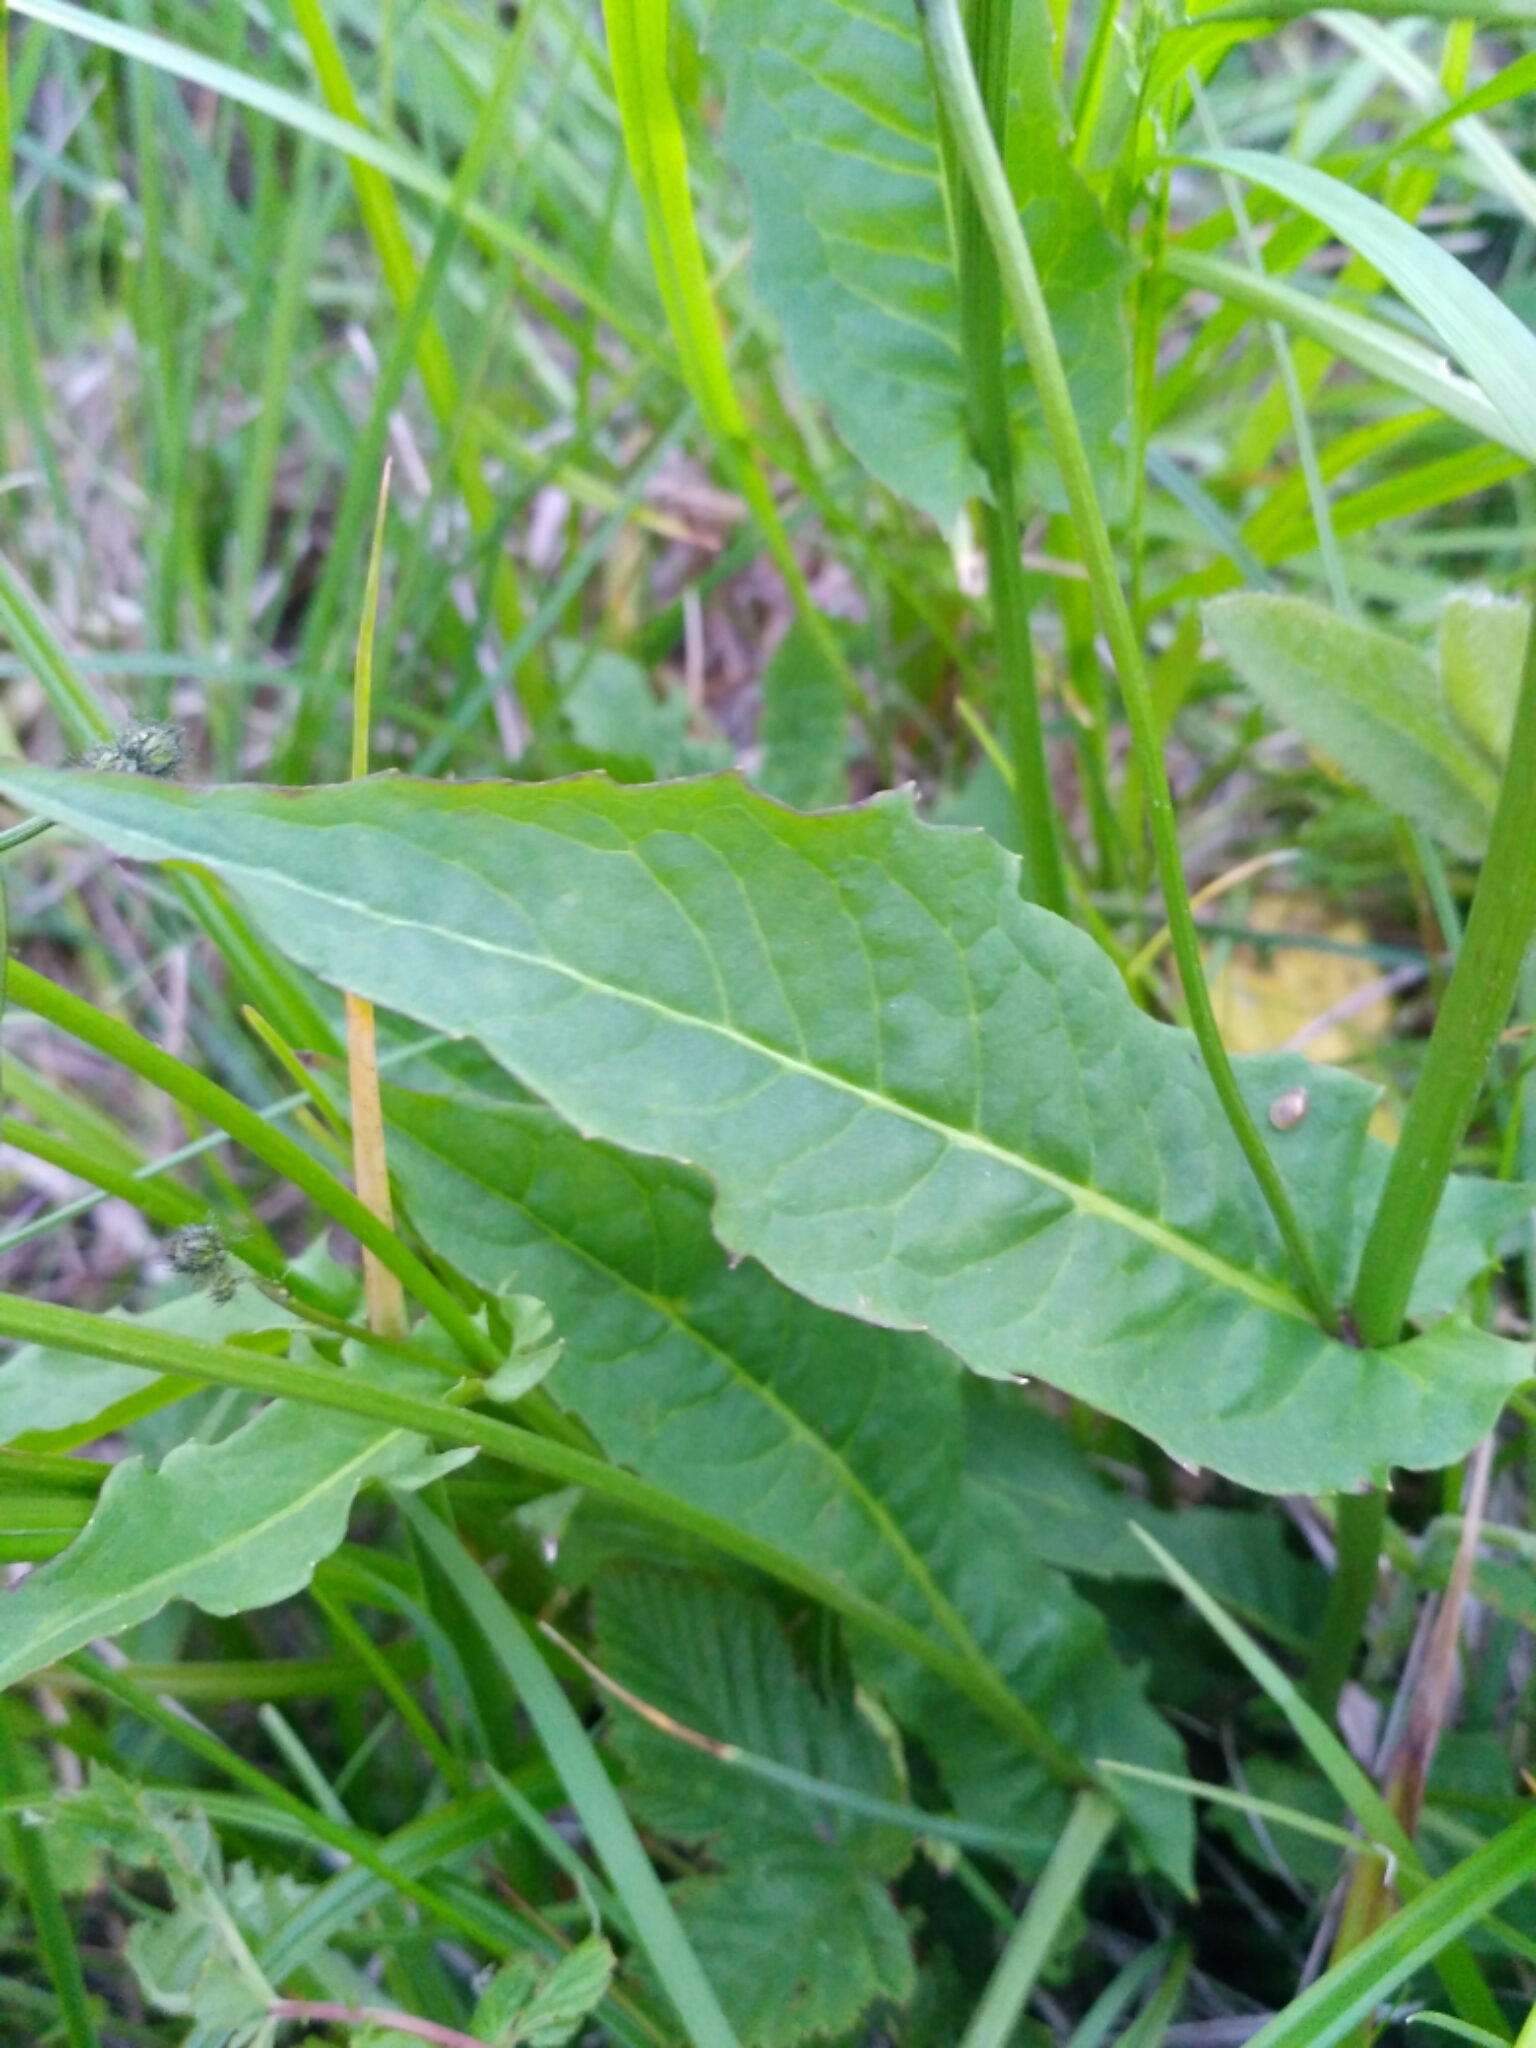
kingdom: Plantae
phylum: Tracheophyta
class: Magnoliopsida
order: Asterales
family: Asteraceae
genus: Crepis
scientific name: Crepis paludosa
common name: Marsh hawk's-beard
